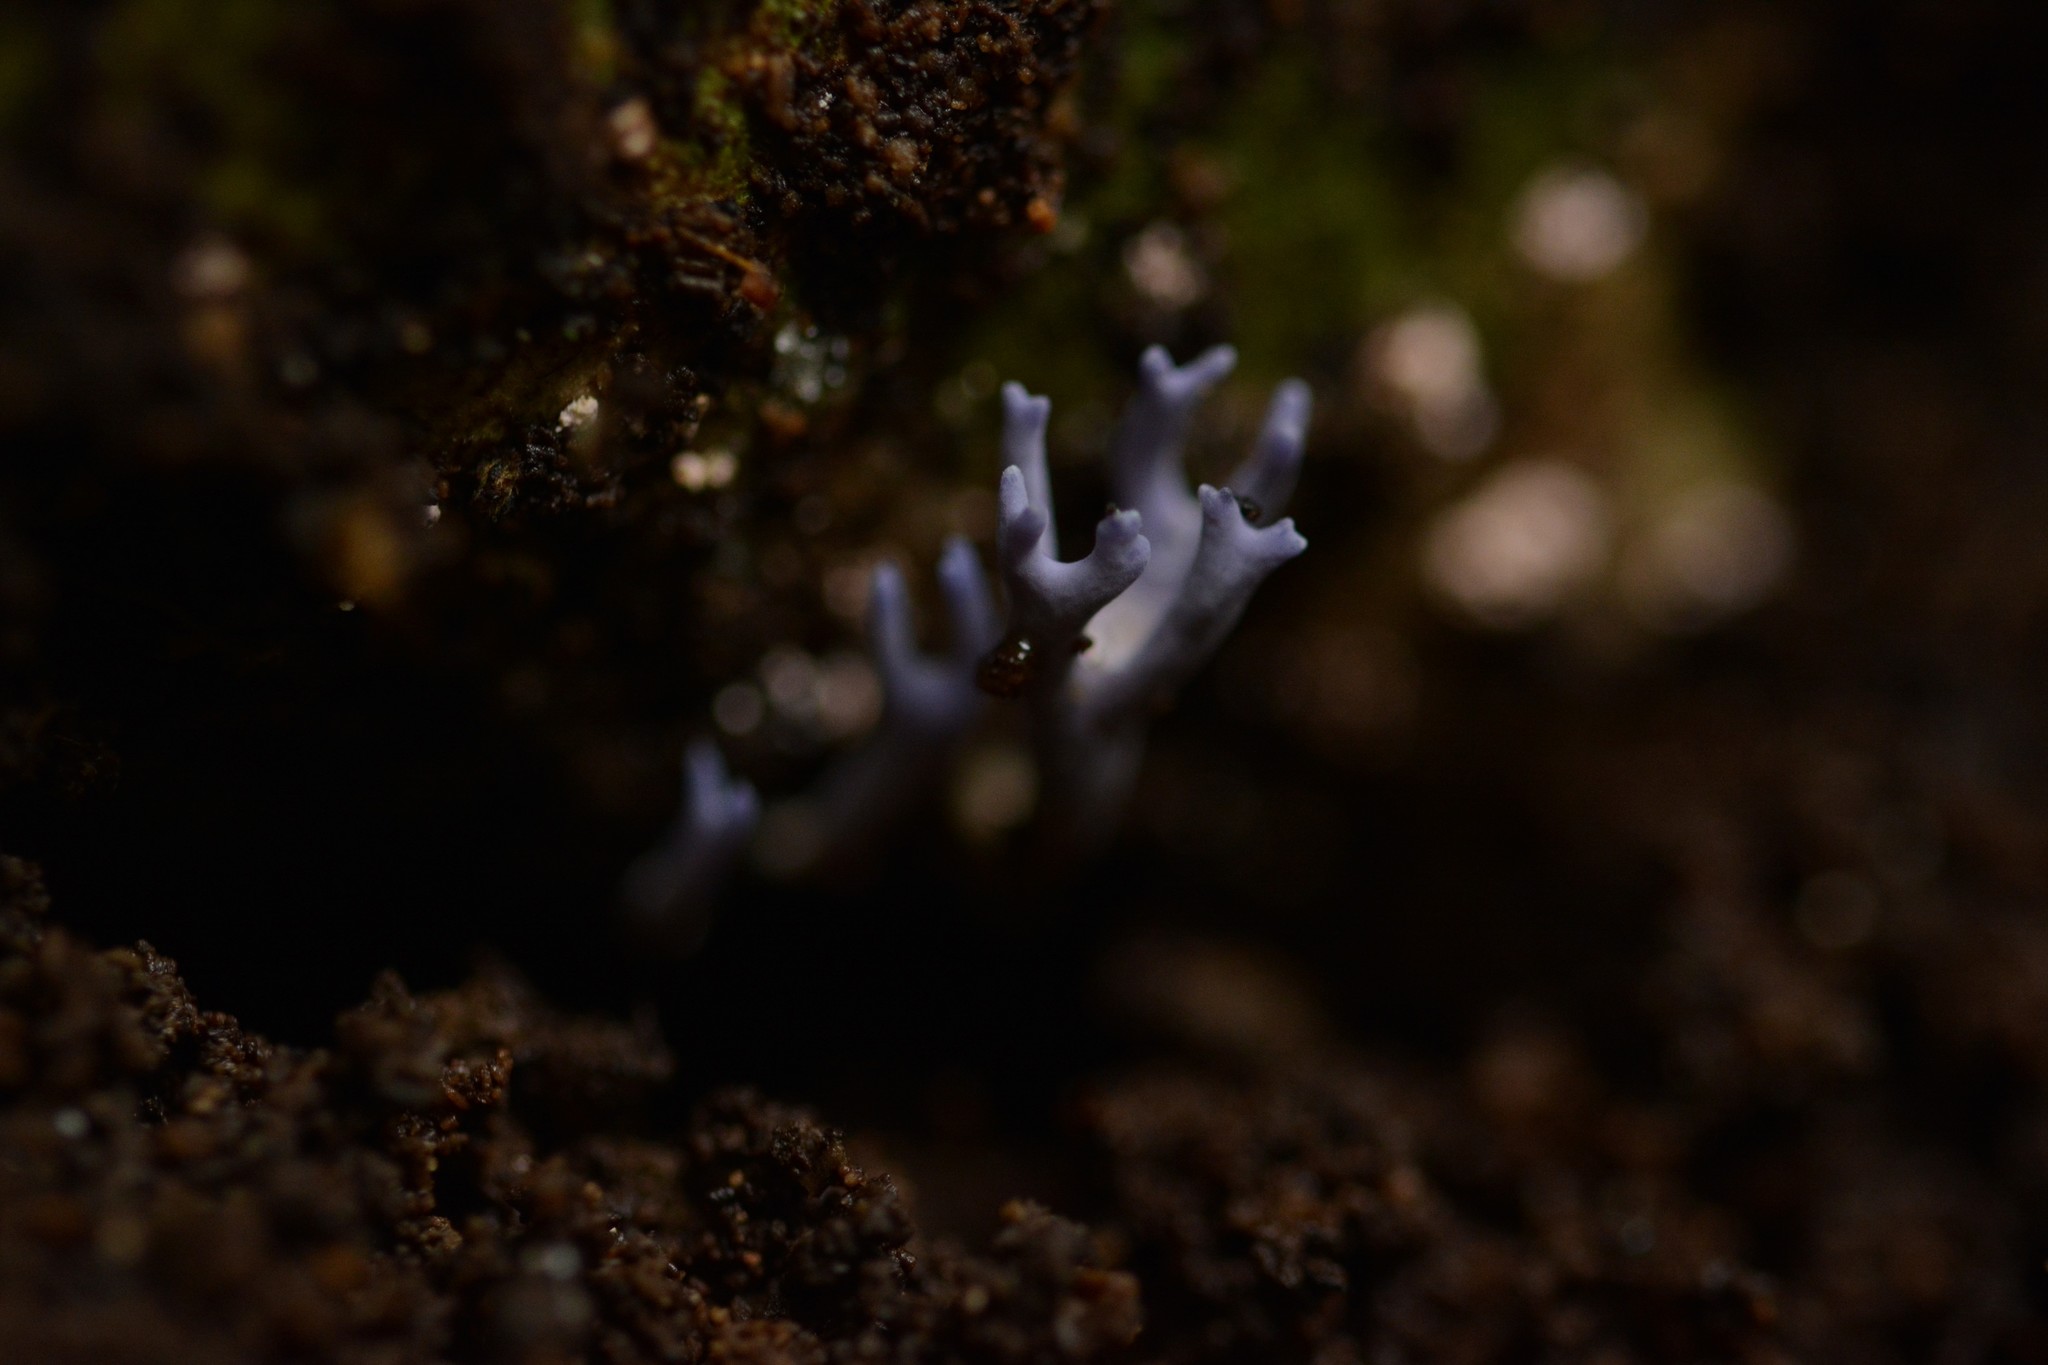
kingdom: Fungi
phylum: Basidiomycota
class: Agaricomycetes
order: Agaricales
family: Clavariaceae
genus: Ramariopsis
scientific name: Ramariopsis pulchella
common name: Lilac coral
